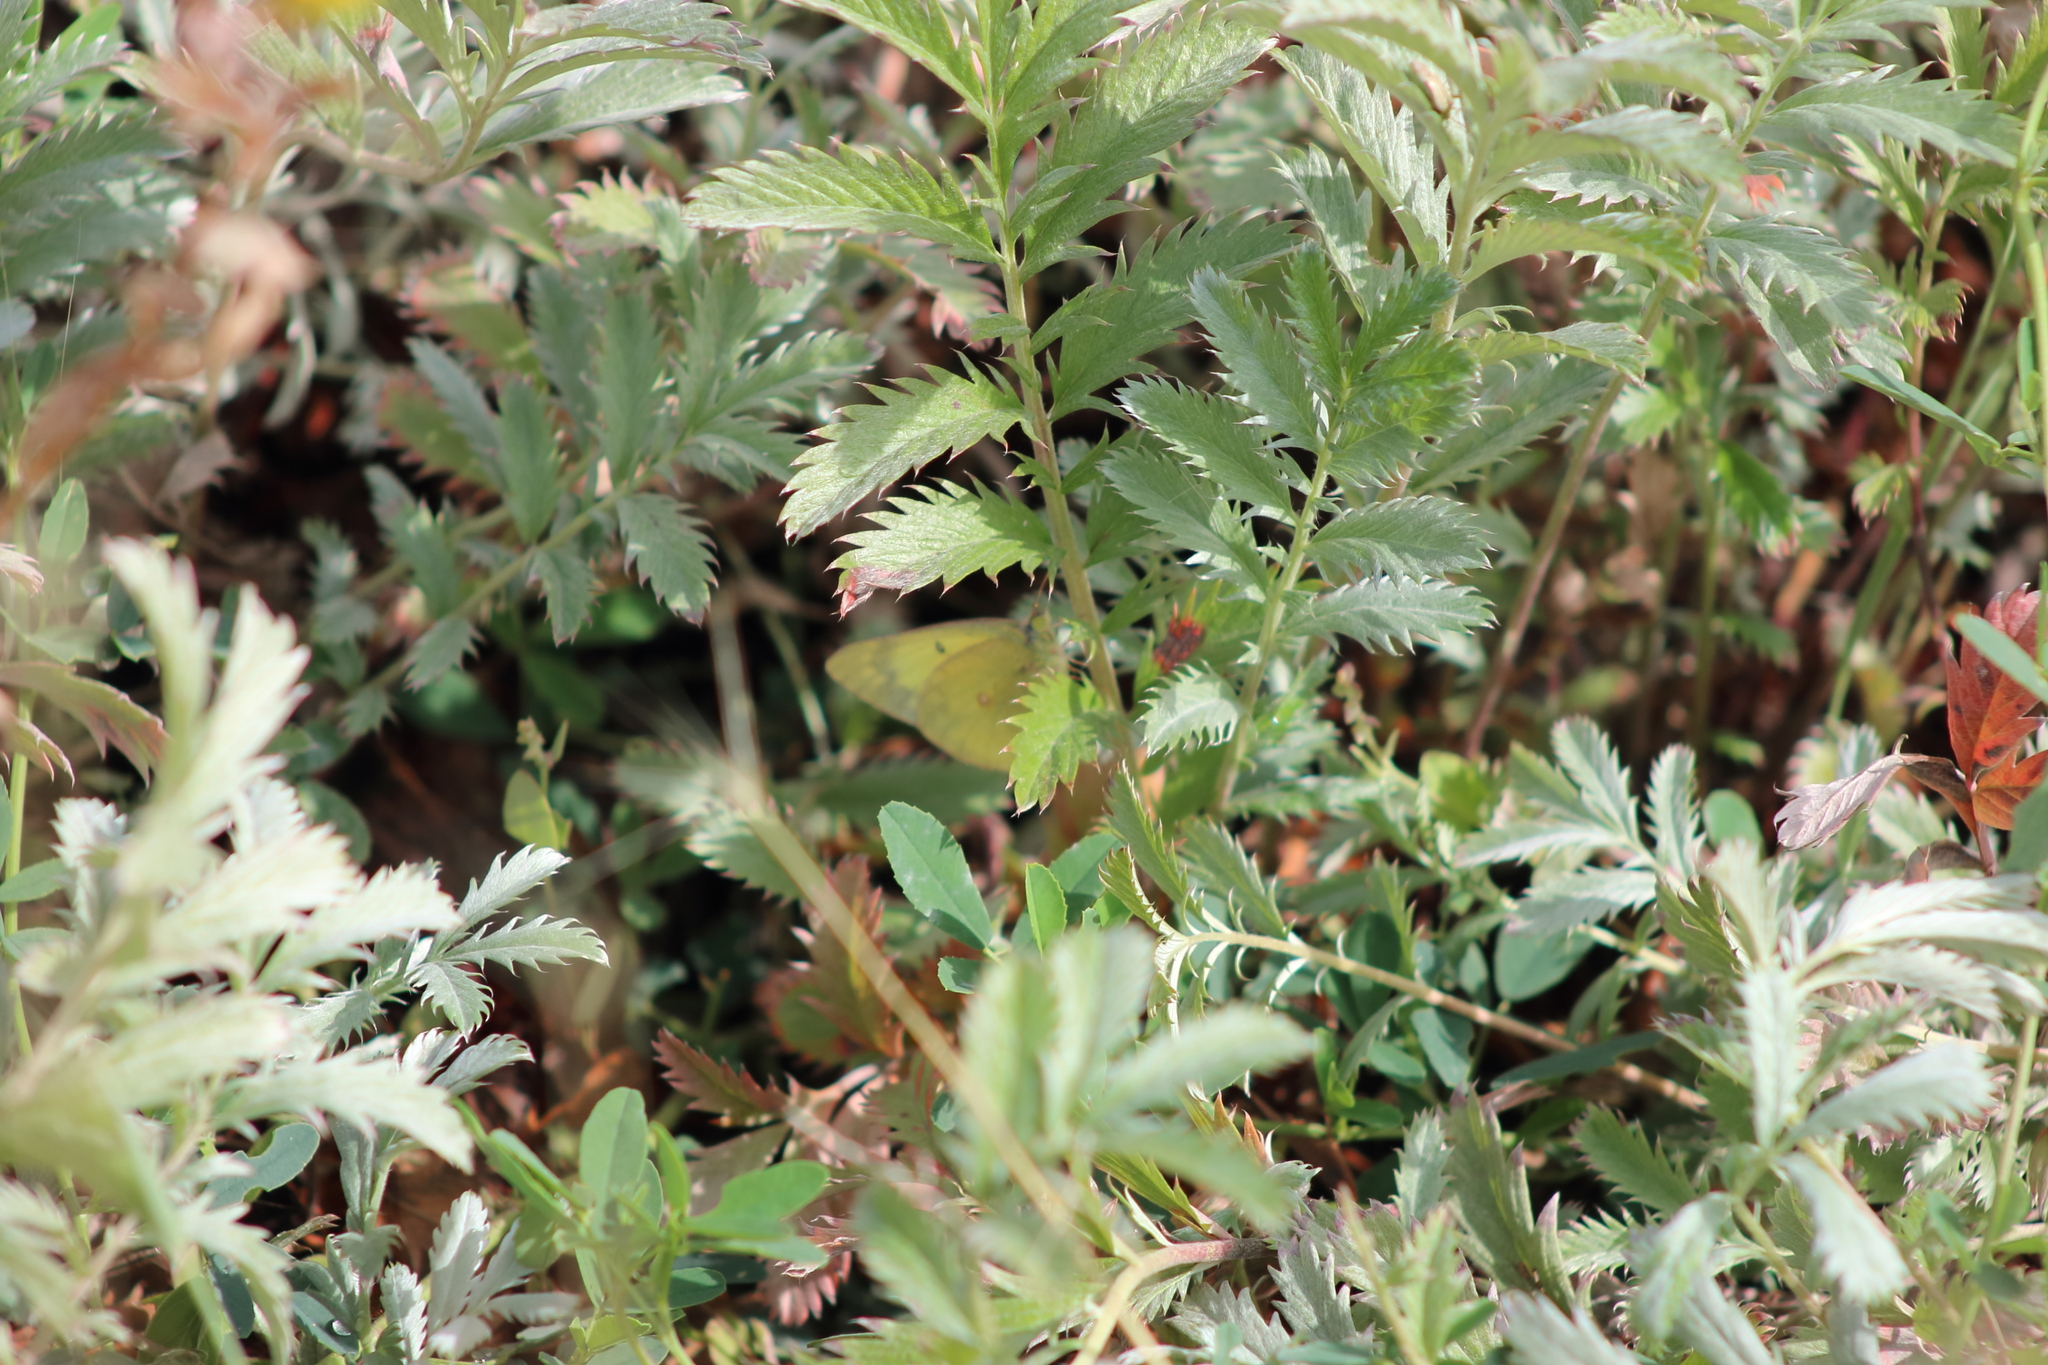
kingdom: Plantae
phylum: Tracheophyta
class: Magnoliopsida
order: Rosales
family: Rosaceae
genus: Argentina
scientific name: Argentina anserina
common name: Common silverweed
